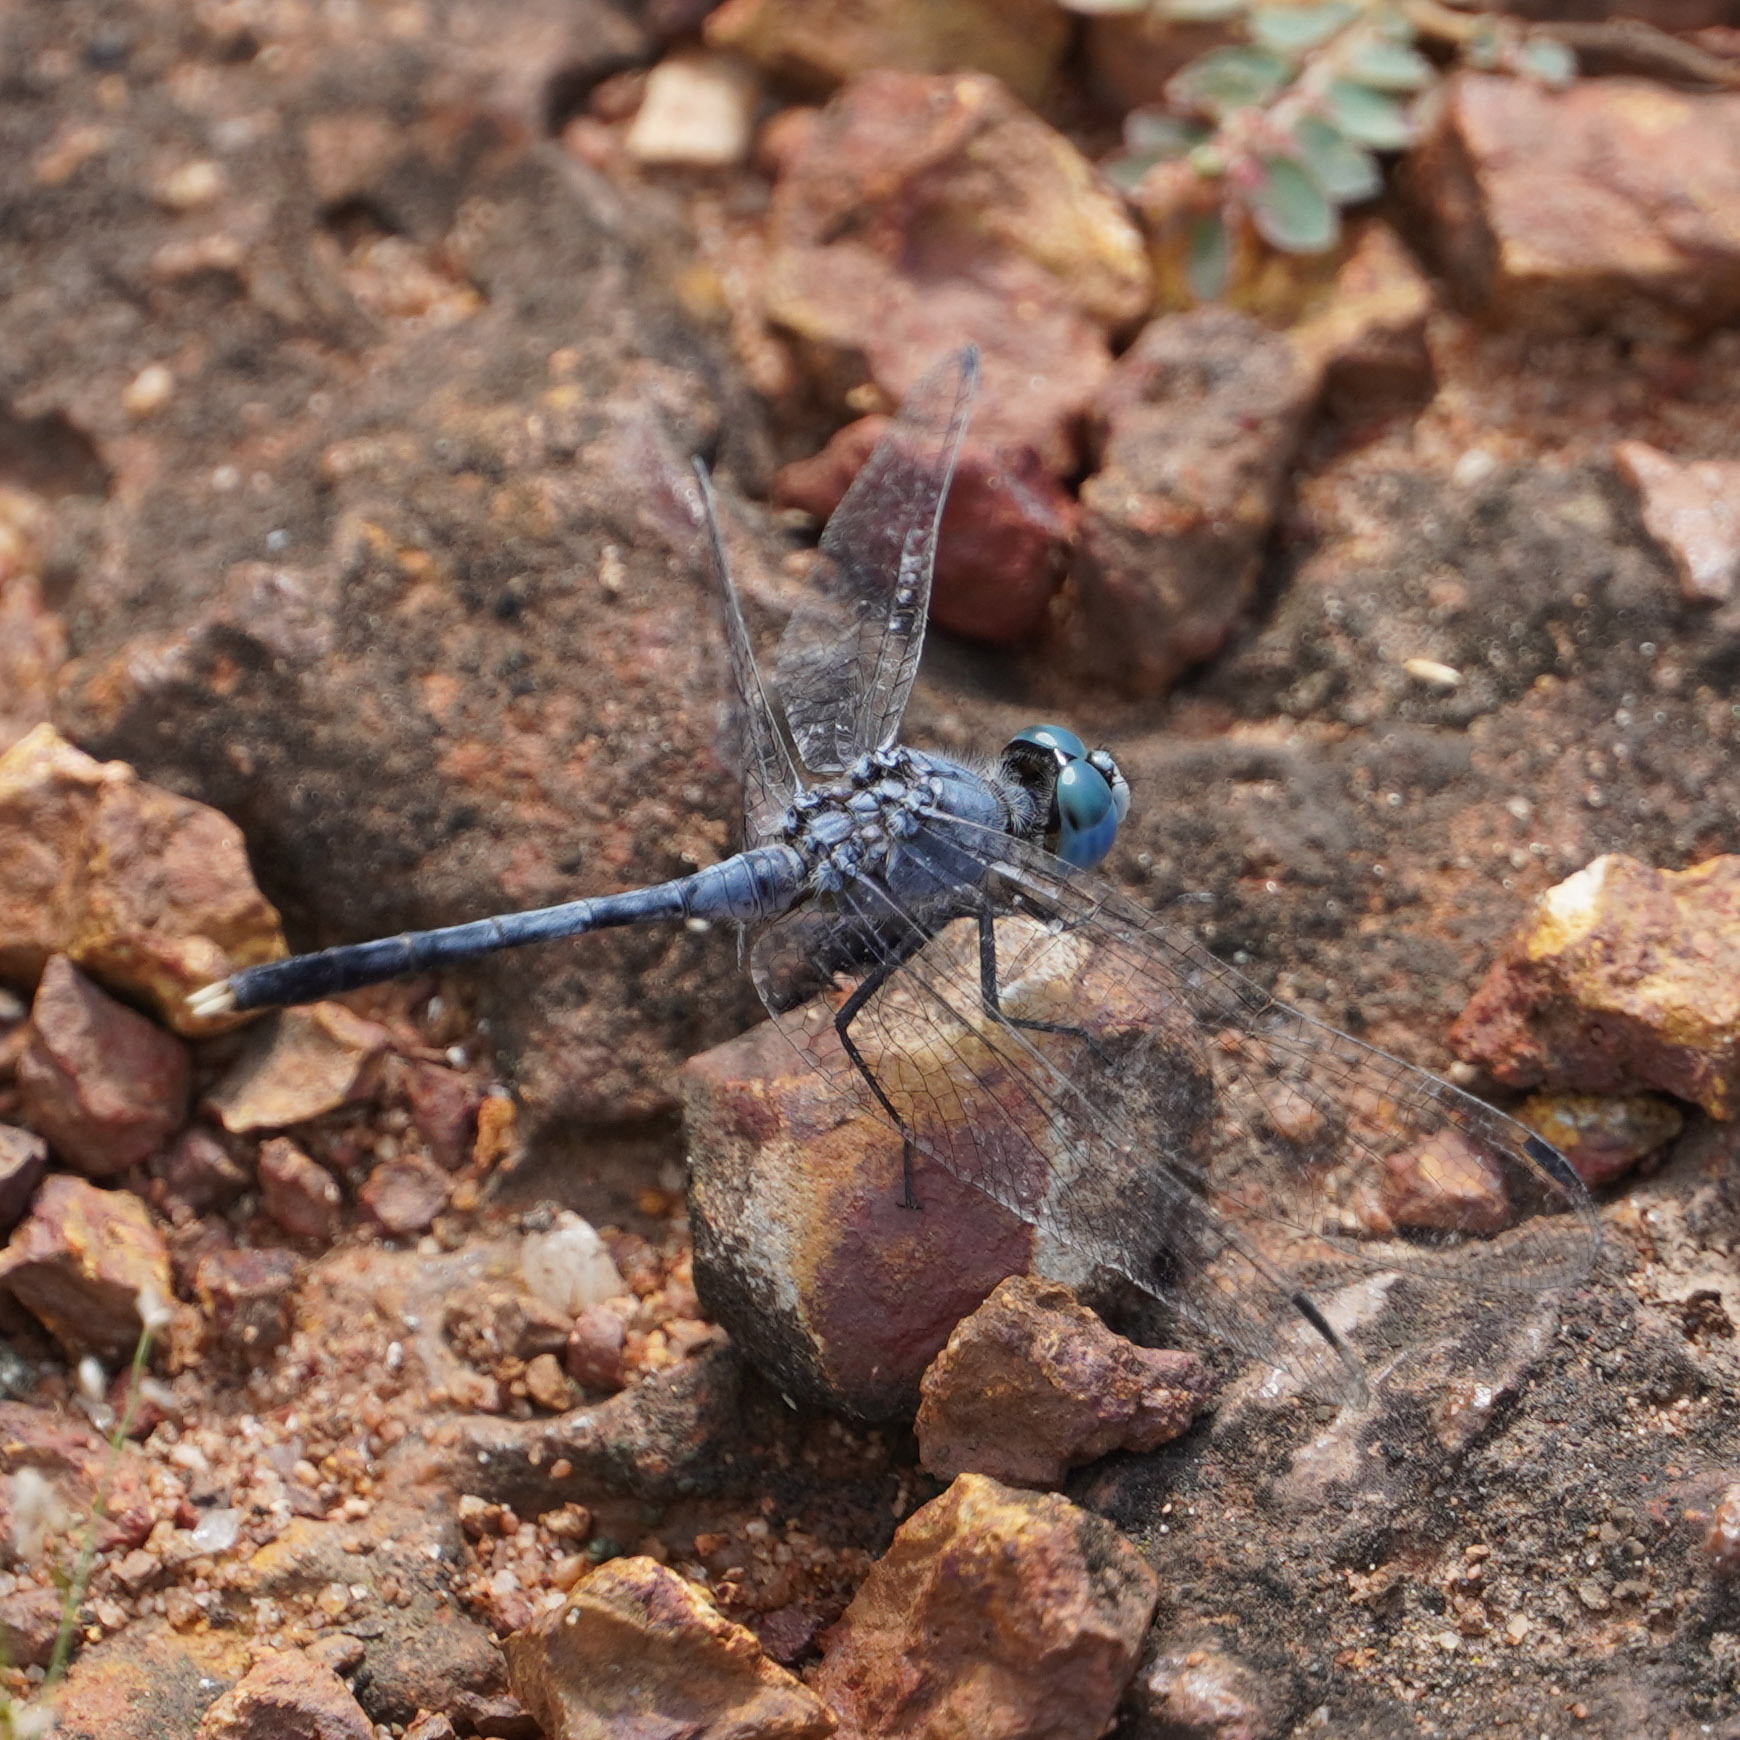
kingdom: Animalia
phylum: Arthropoda
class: Insecta
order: Odonata
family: Libellulidae
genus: Diplacodes
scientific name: Diplacodes trivialis
